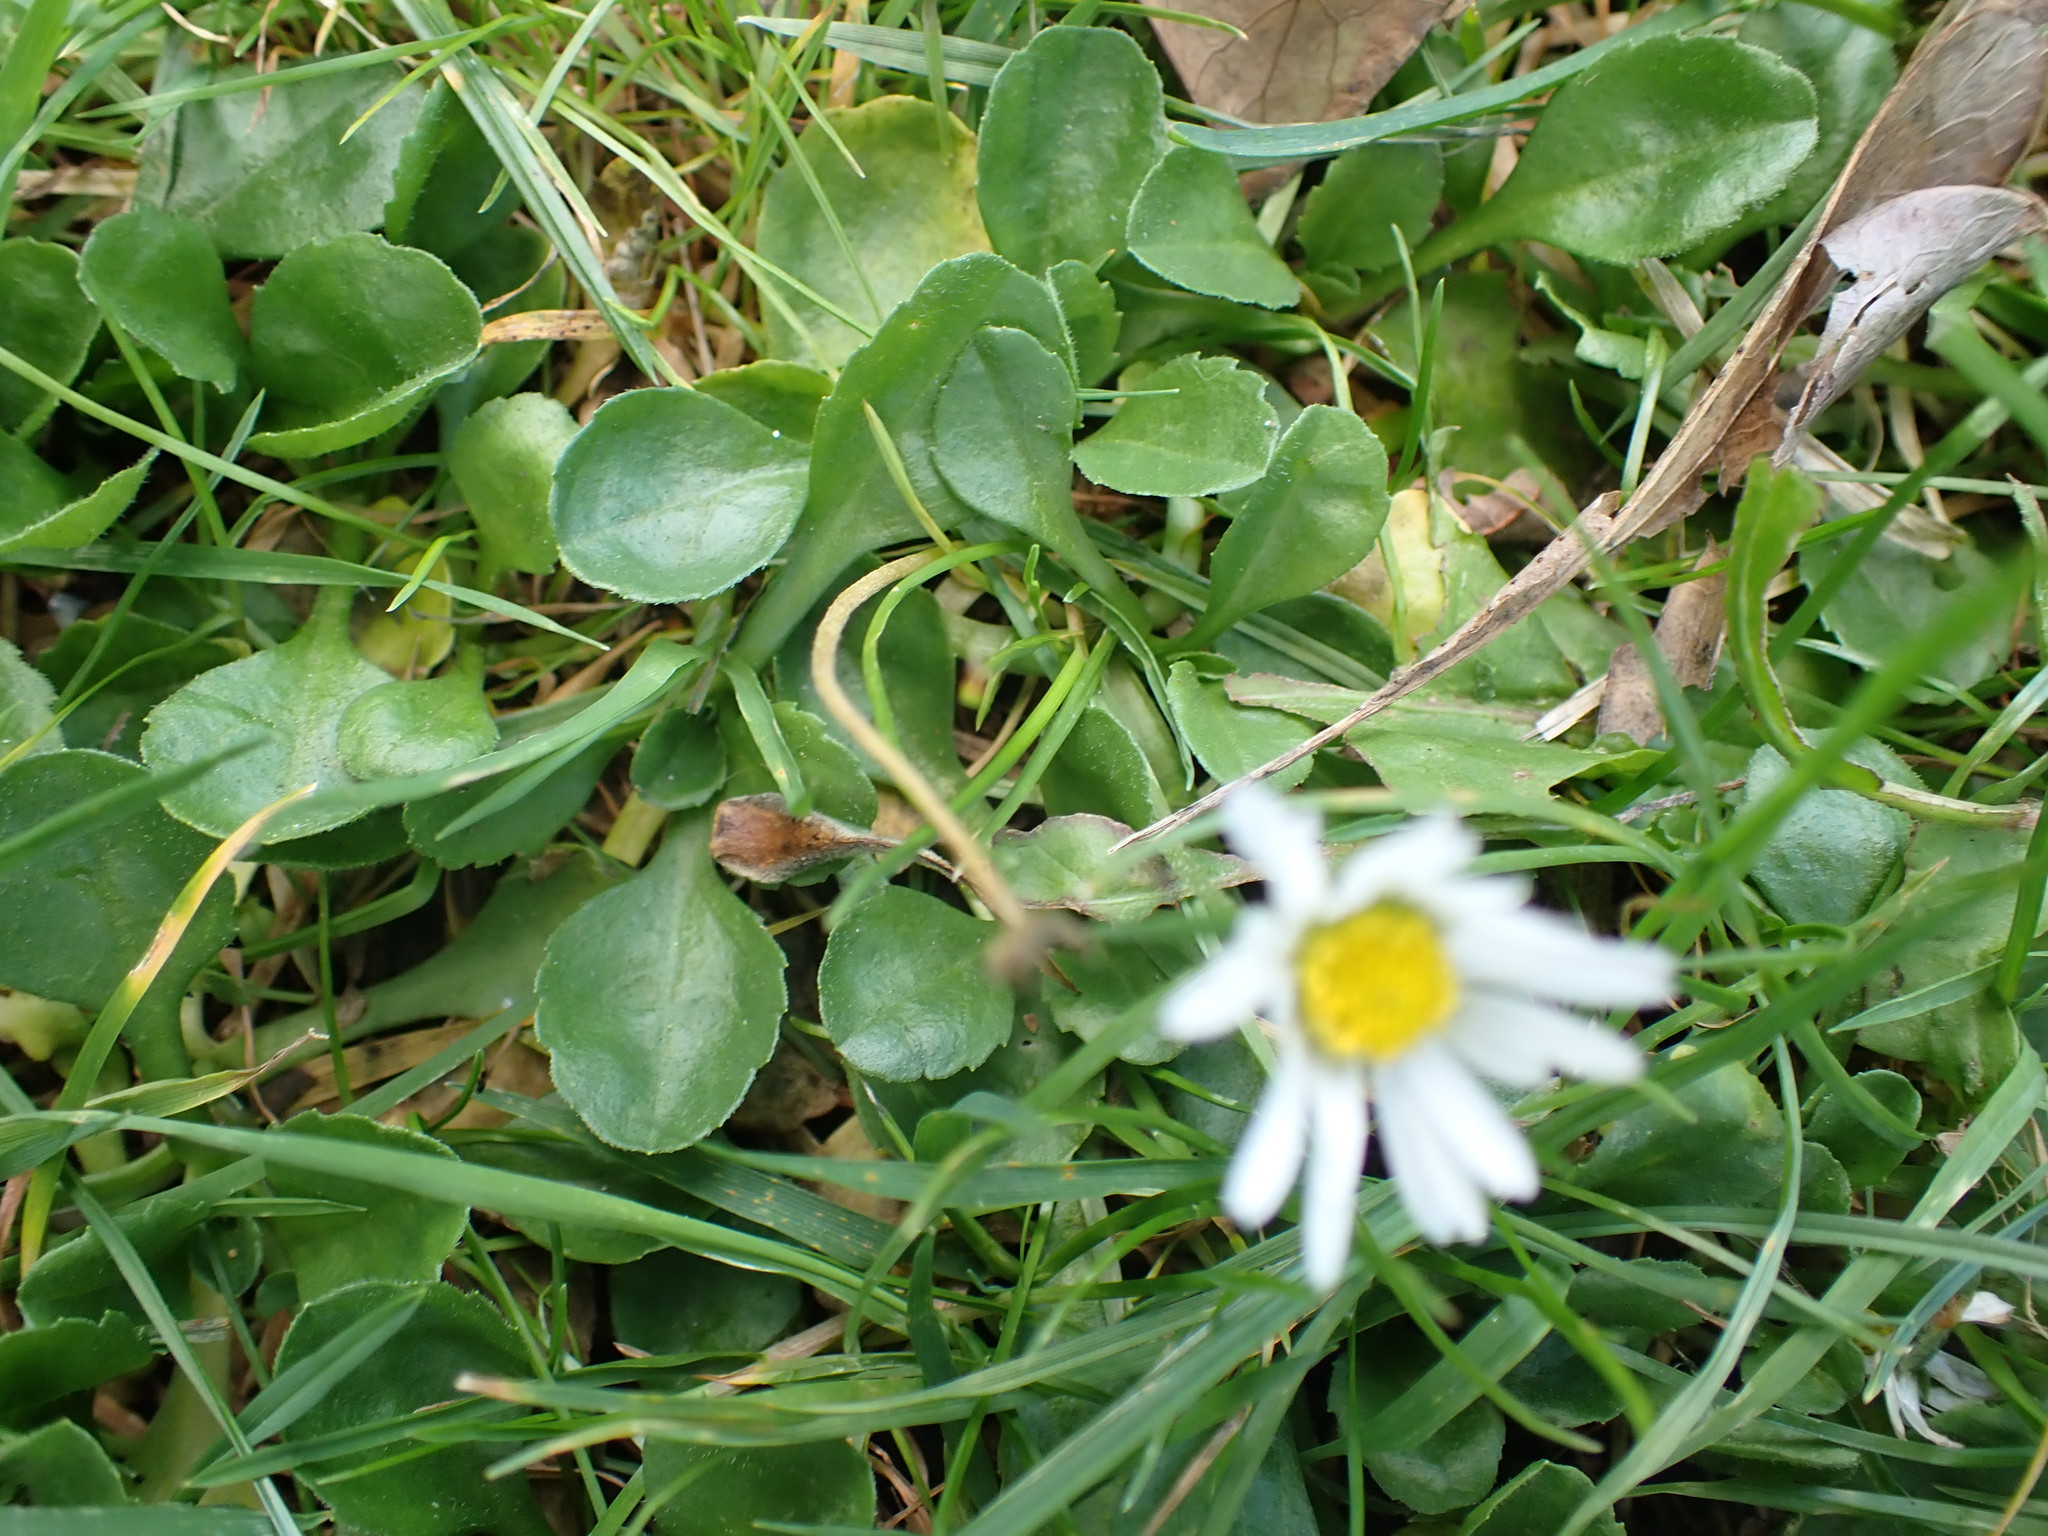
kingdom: Plantae
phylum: Tracheophyta
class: Magnoliopsida
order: Asterales
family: Asteraceae
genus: Bellis
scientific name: Bellis perennis
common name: Lawndaisy
